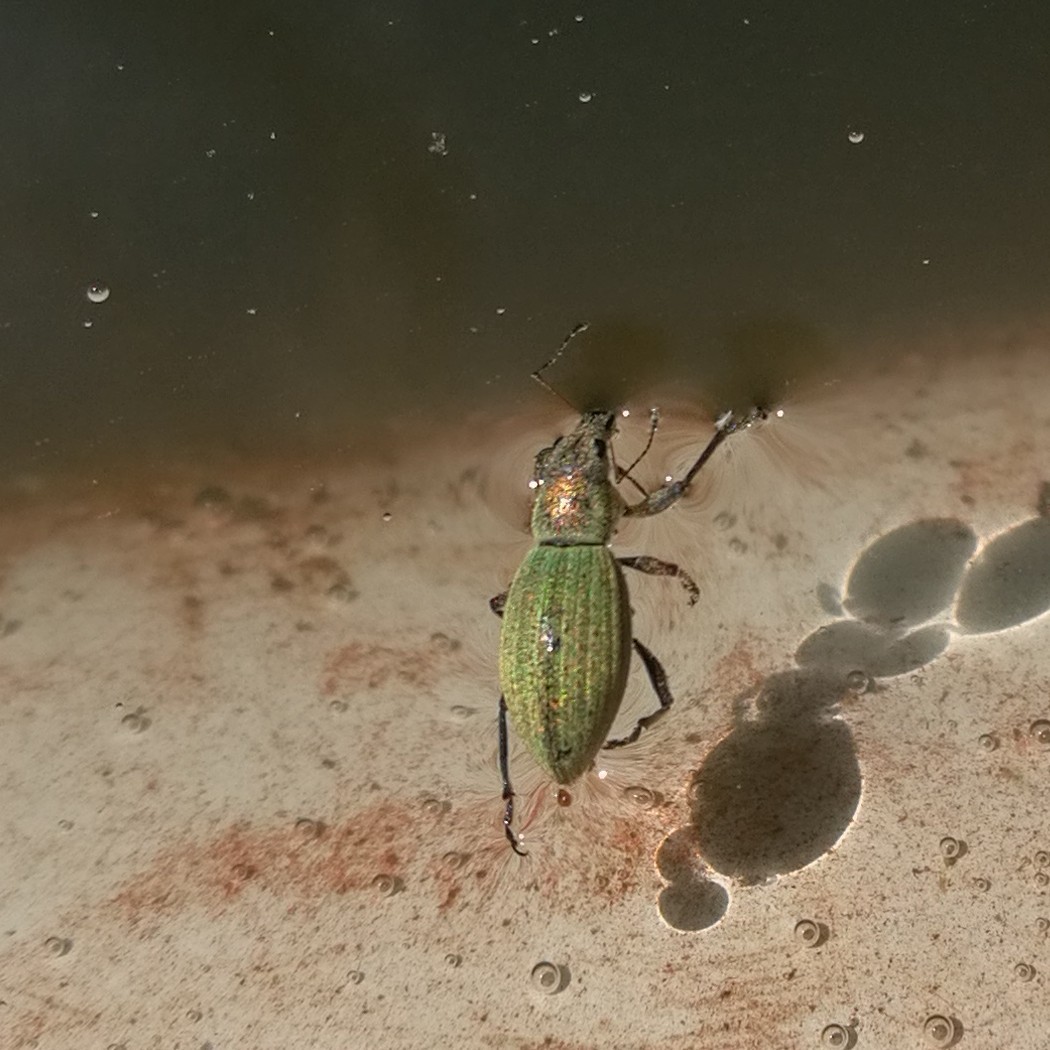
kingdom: Animalia
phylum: Arthropoda
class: Insecta
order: Coleoptera
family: Curculionidae
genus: Eusomus
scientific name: Eusomus ovulum
